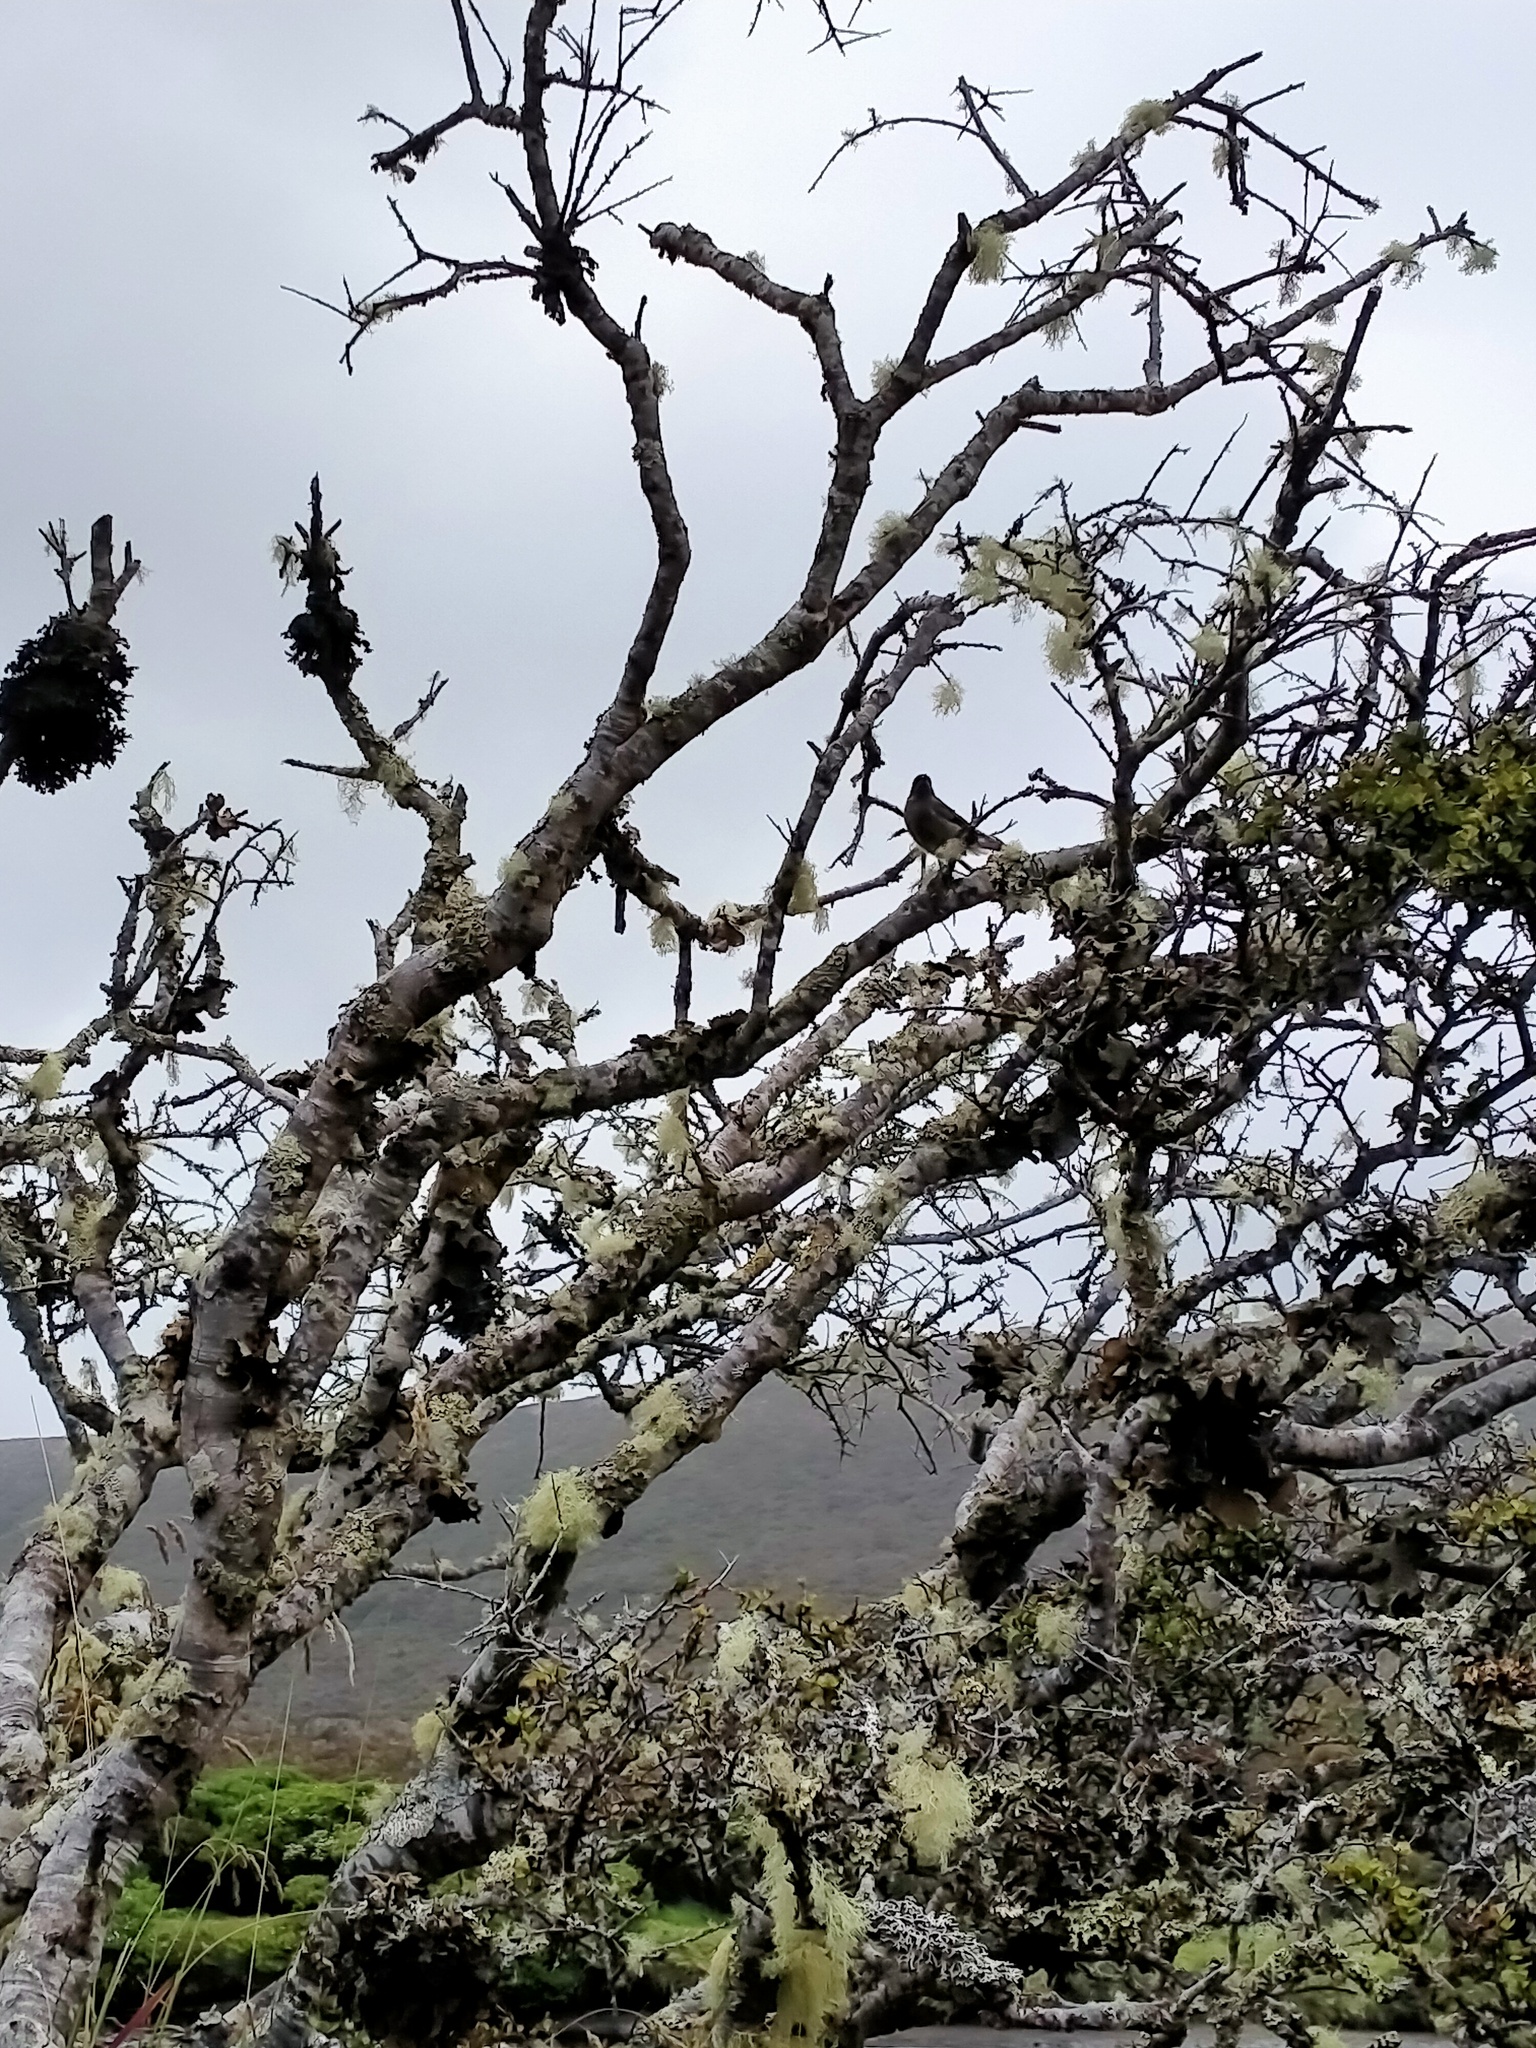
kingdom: Animalia
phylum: Chordata
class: Aves
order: Passeriformes
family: Meliphagidae
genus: Anthornis
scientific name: Anthornis melanura
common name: New zealand bellbird
